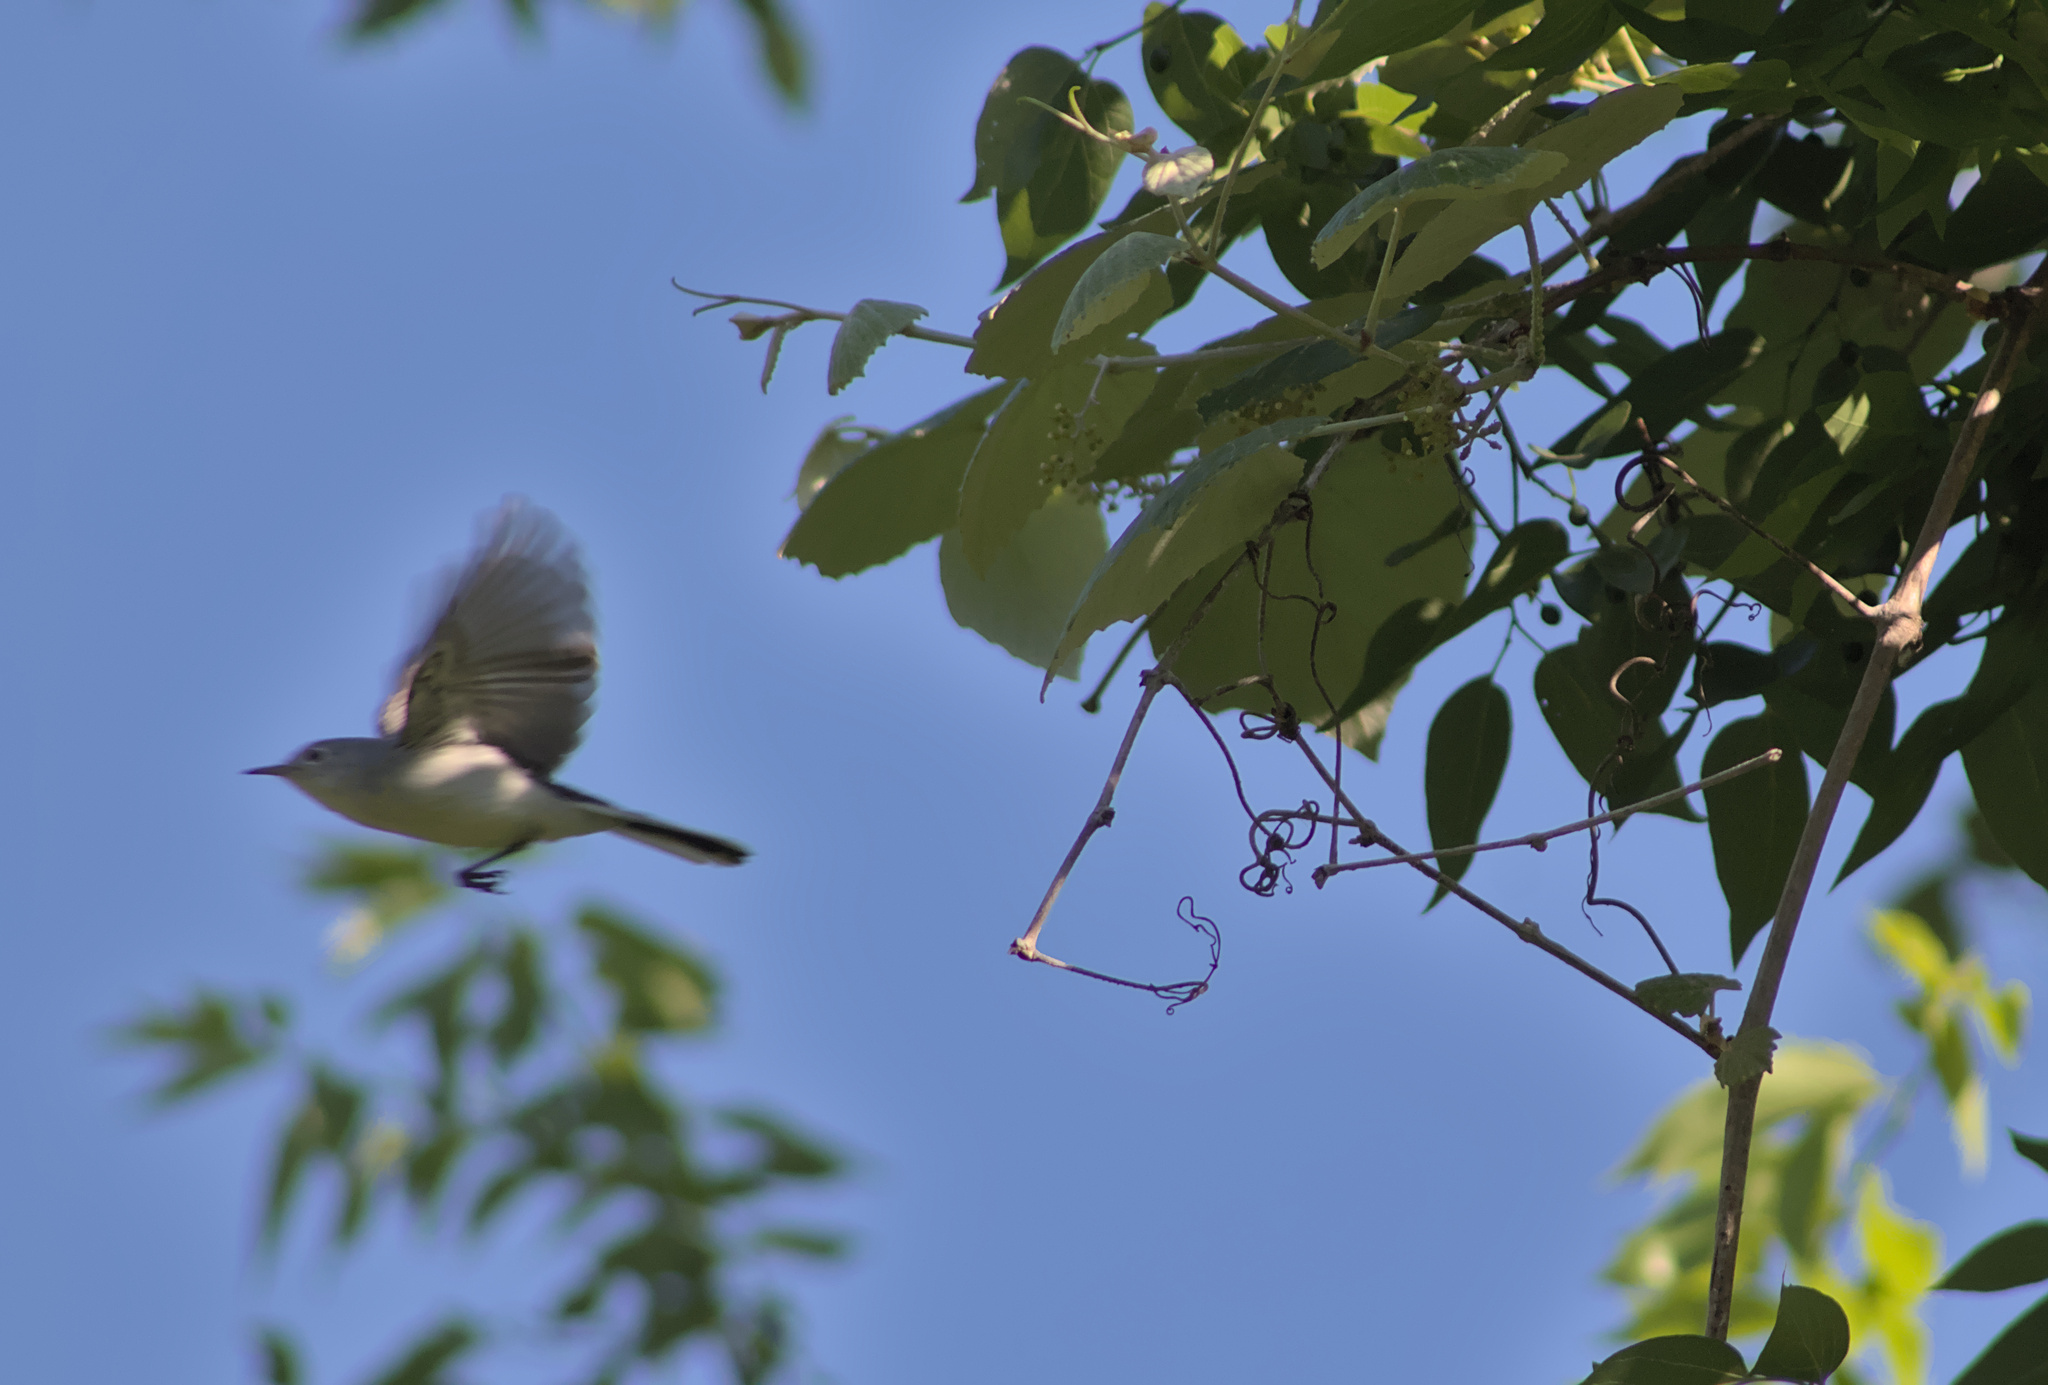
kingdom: Animalia
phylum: Chordata
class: Aves
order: Passeriformes
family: Polioptilidae
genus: Polioptila
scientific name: Polioptila caerulea
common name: Blue-gray gnatcatcher
